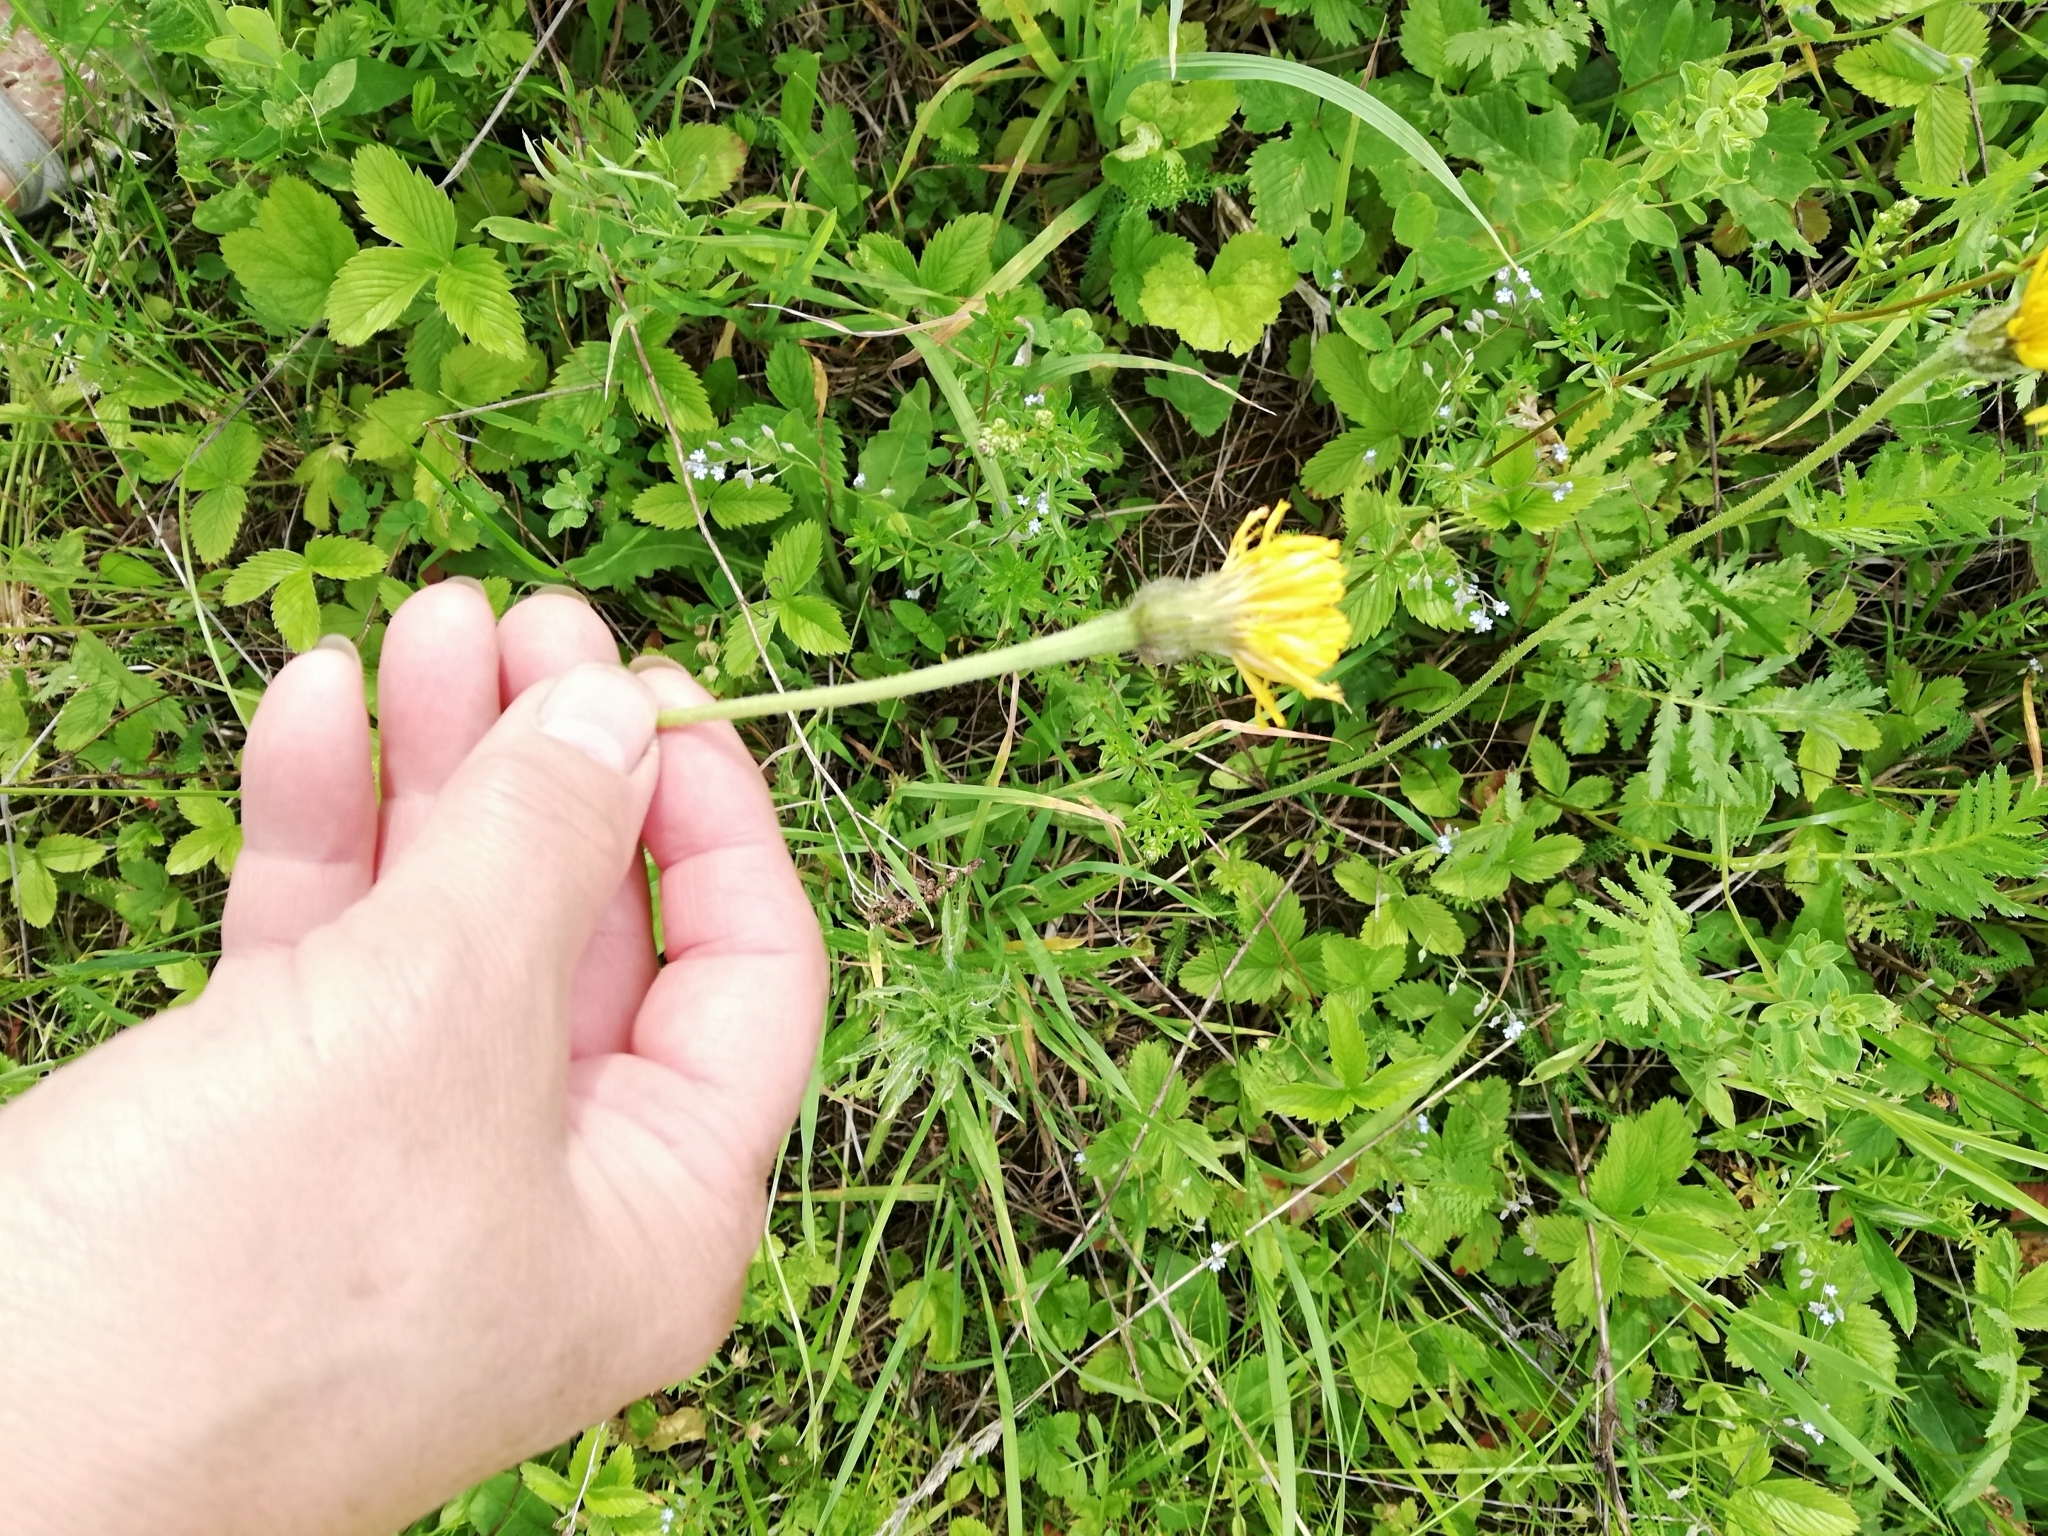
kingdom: Plantae
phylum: Tracheophyta
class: Magnoliopsida
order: Asterales
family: Asteraceae
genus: Leontodon
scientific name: Leontodon hispidus
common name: Rough hawkbit
